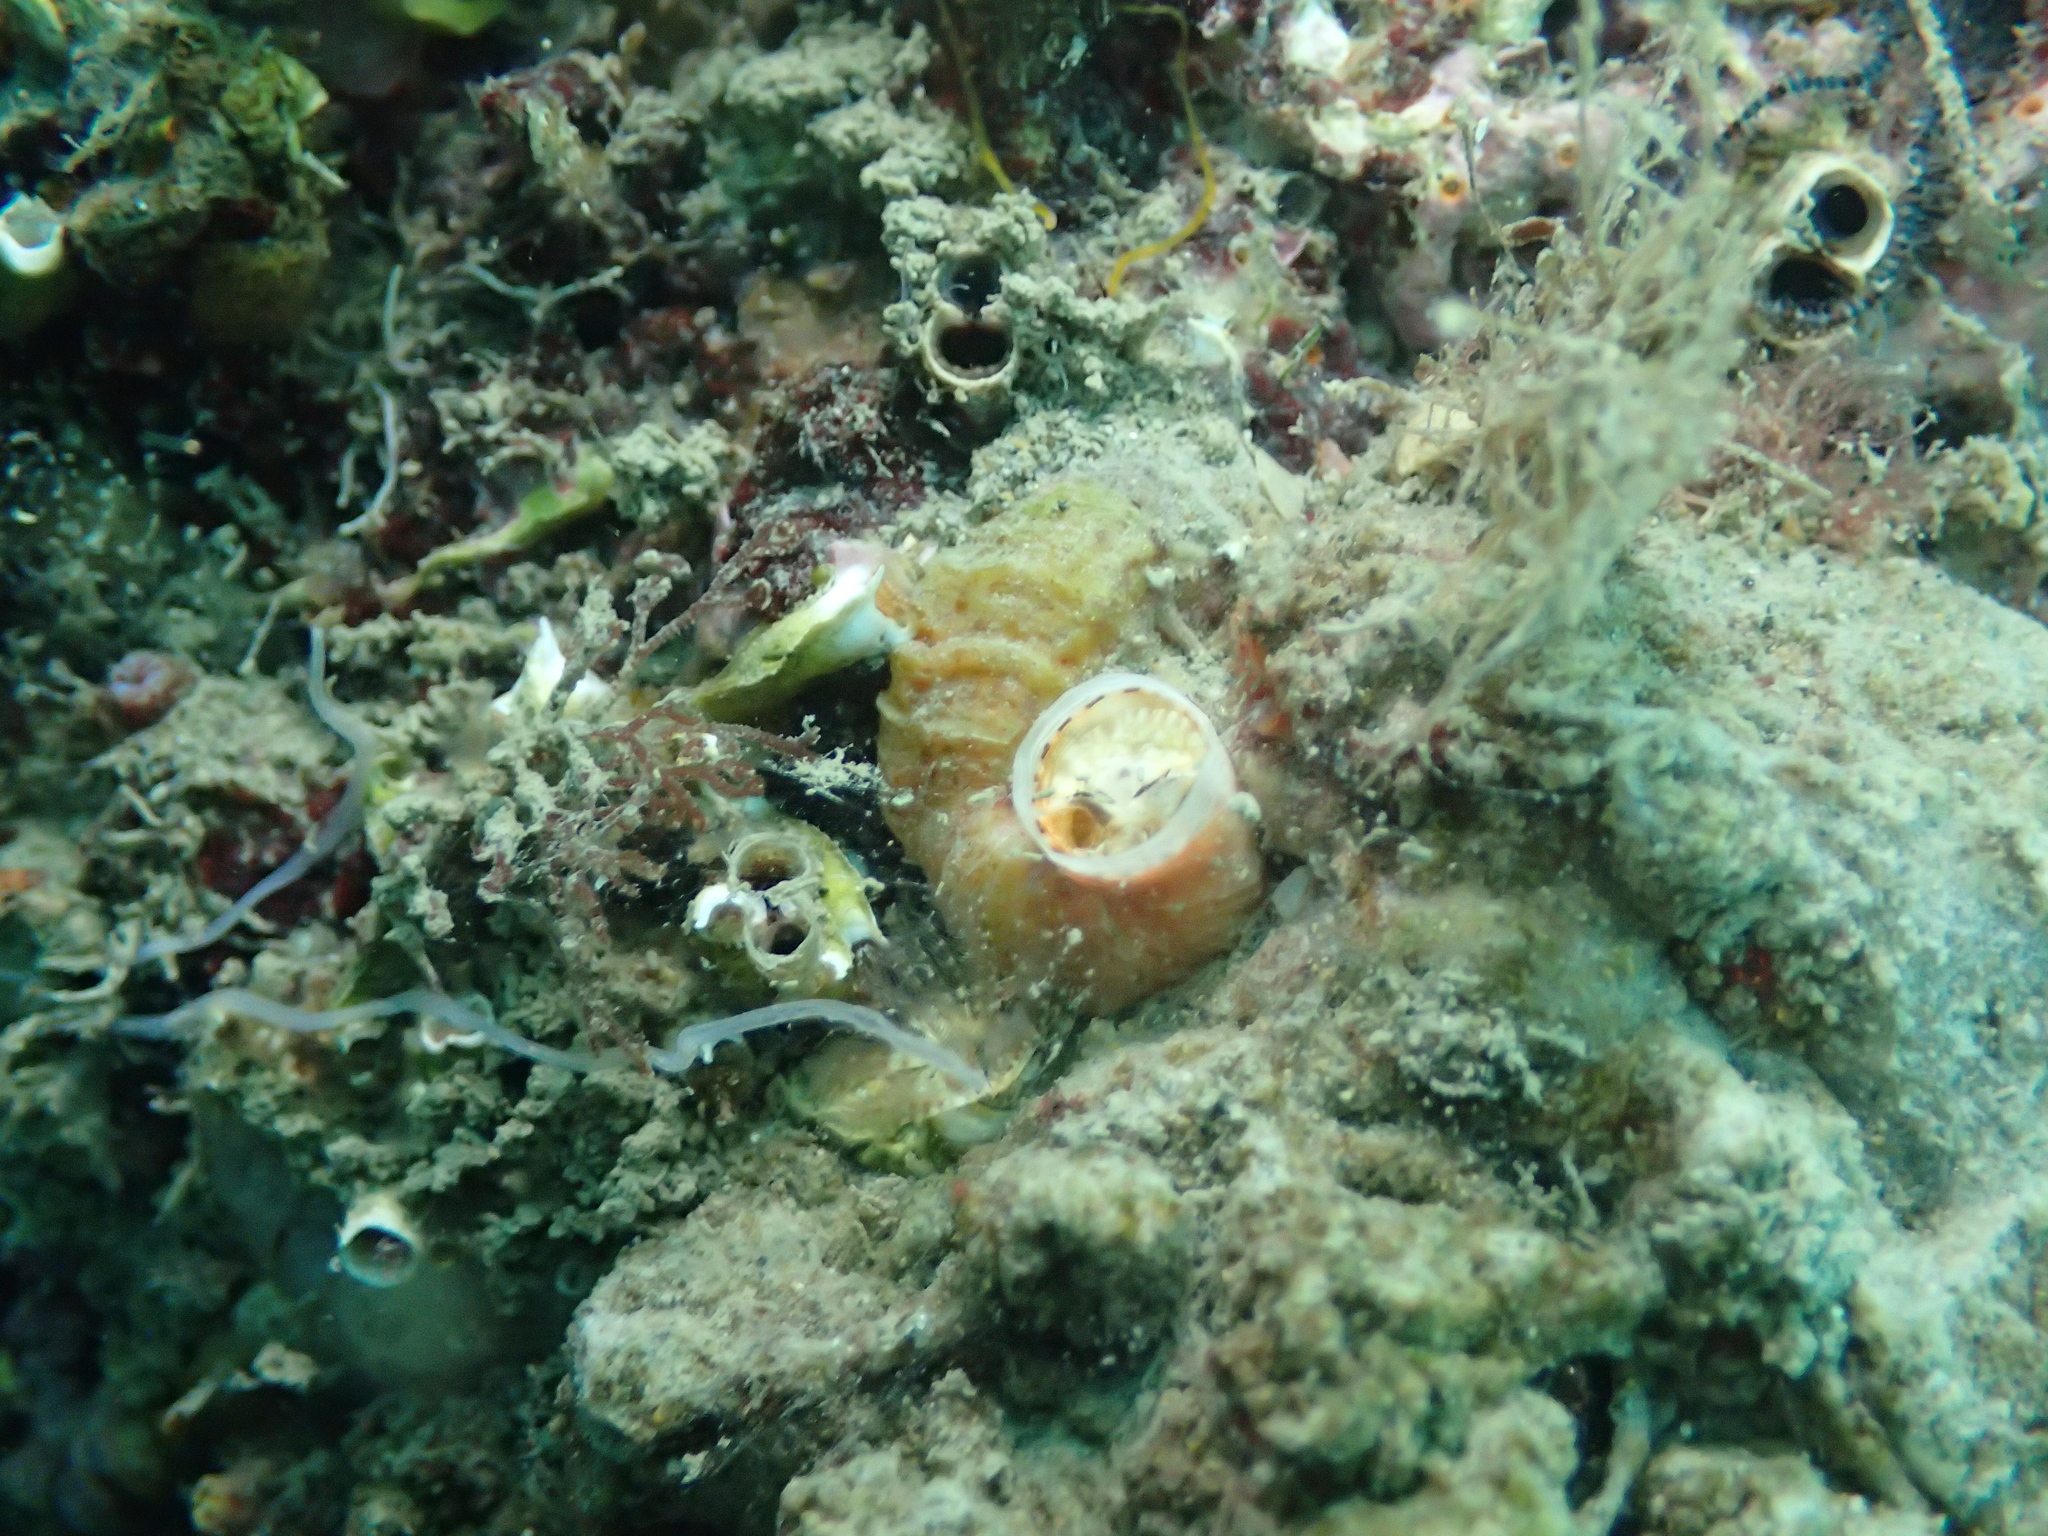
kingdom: Animalia
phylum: Mollusca
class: Gastropoda
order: Littorinimorpha
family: Vermetidae
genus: Vermetus
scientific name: Vermetus triquetrus
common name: Worm shell
